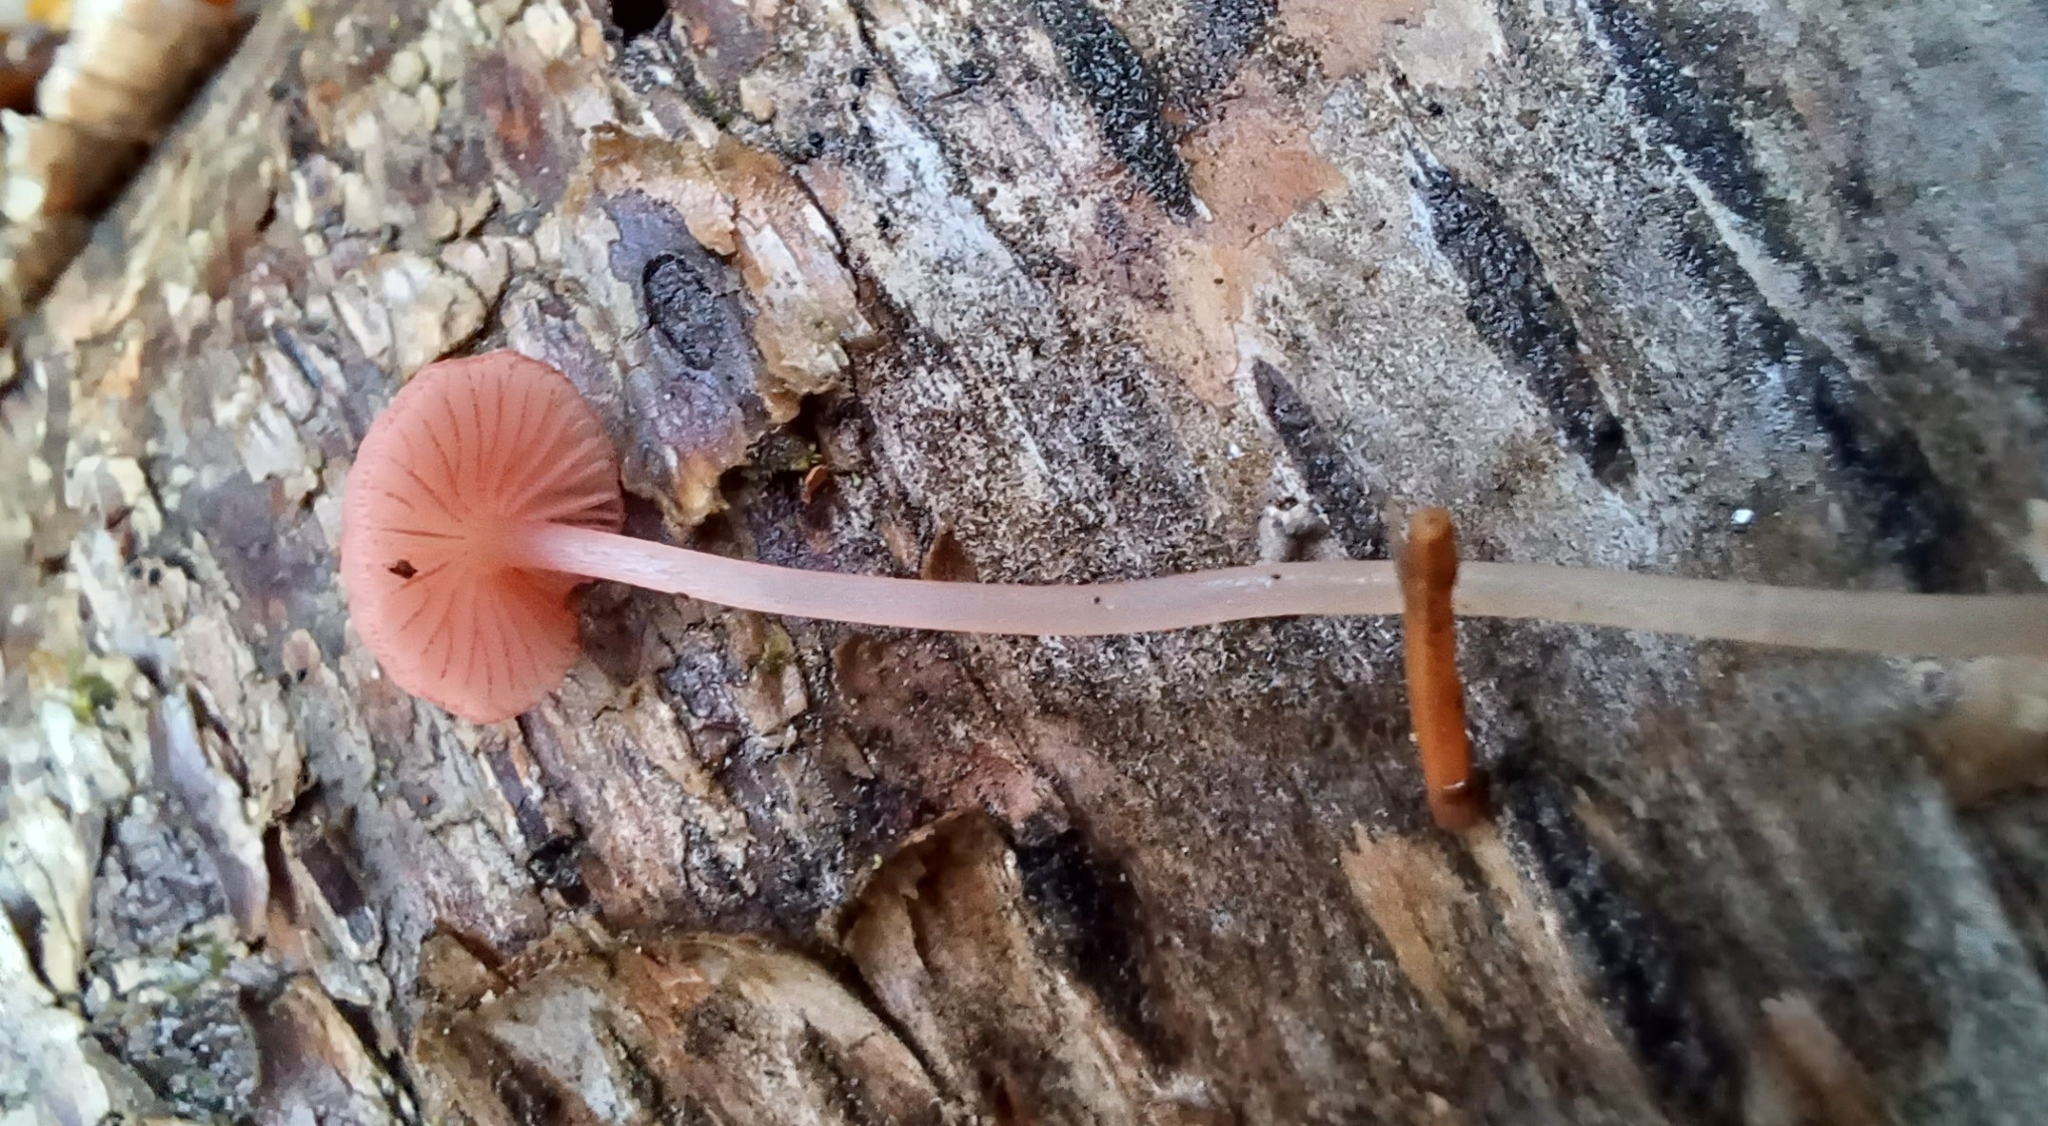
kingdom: Fungi
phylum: Basidiomycota
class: Agaricomycetes
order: Agaricales
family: Mycenaceae
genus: Mycena
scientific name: Mycena rosella
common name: Pink bonnet
